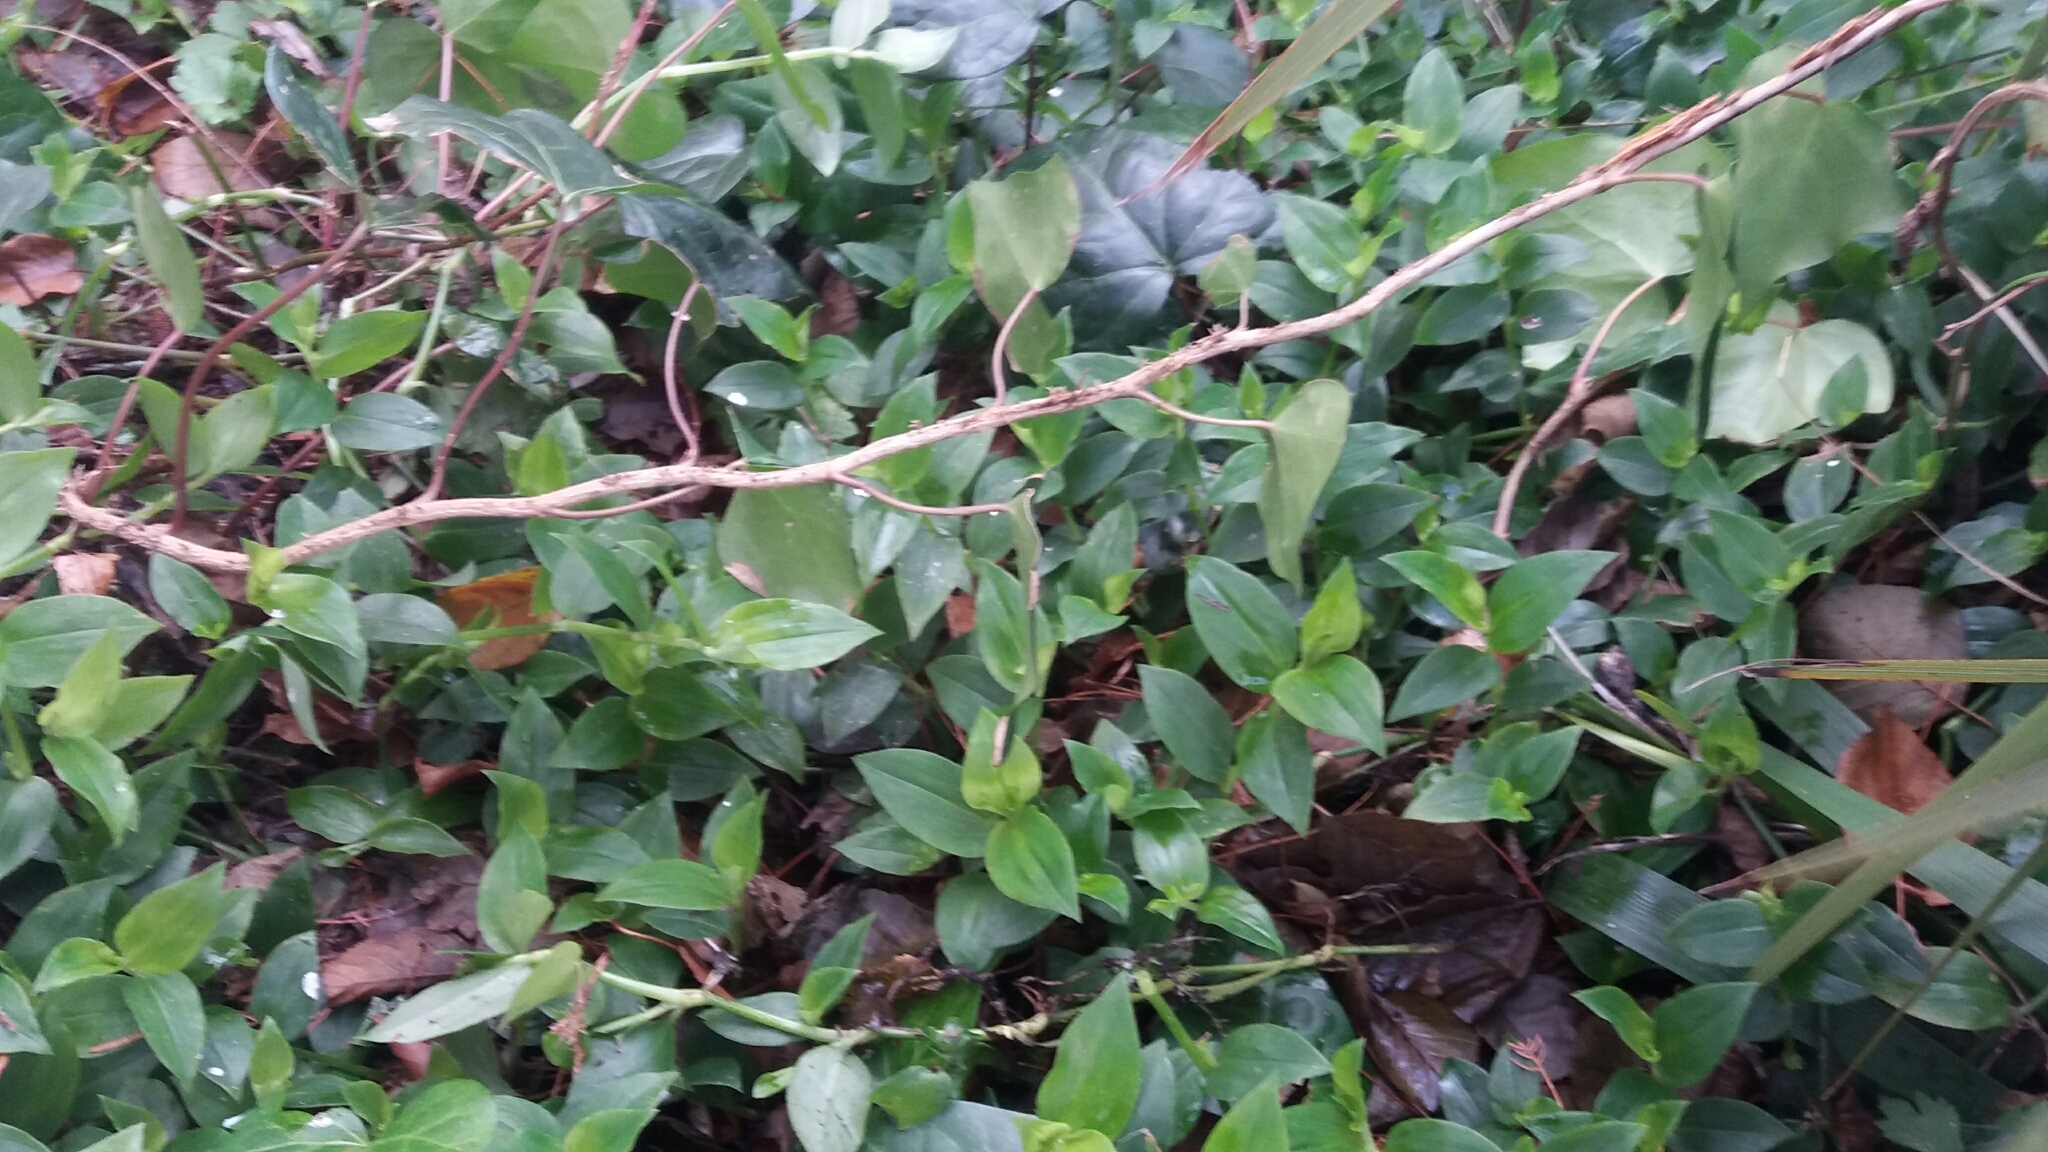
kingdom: Plantae
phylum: Tracheophyta
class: Liliopsida
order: Commelinales
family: Commelinaceae
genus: Tradescantia
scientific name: Tradescantia fluminensis
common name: Wandering-jew
